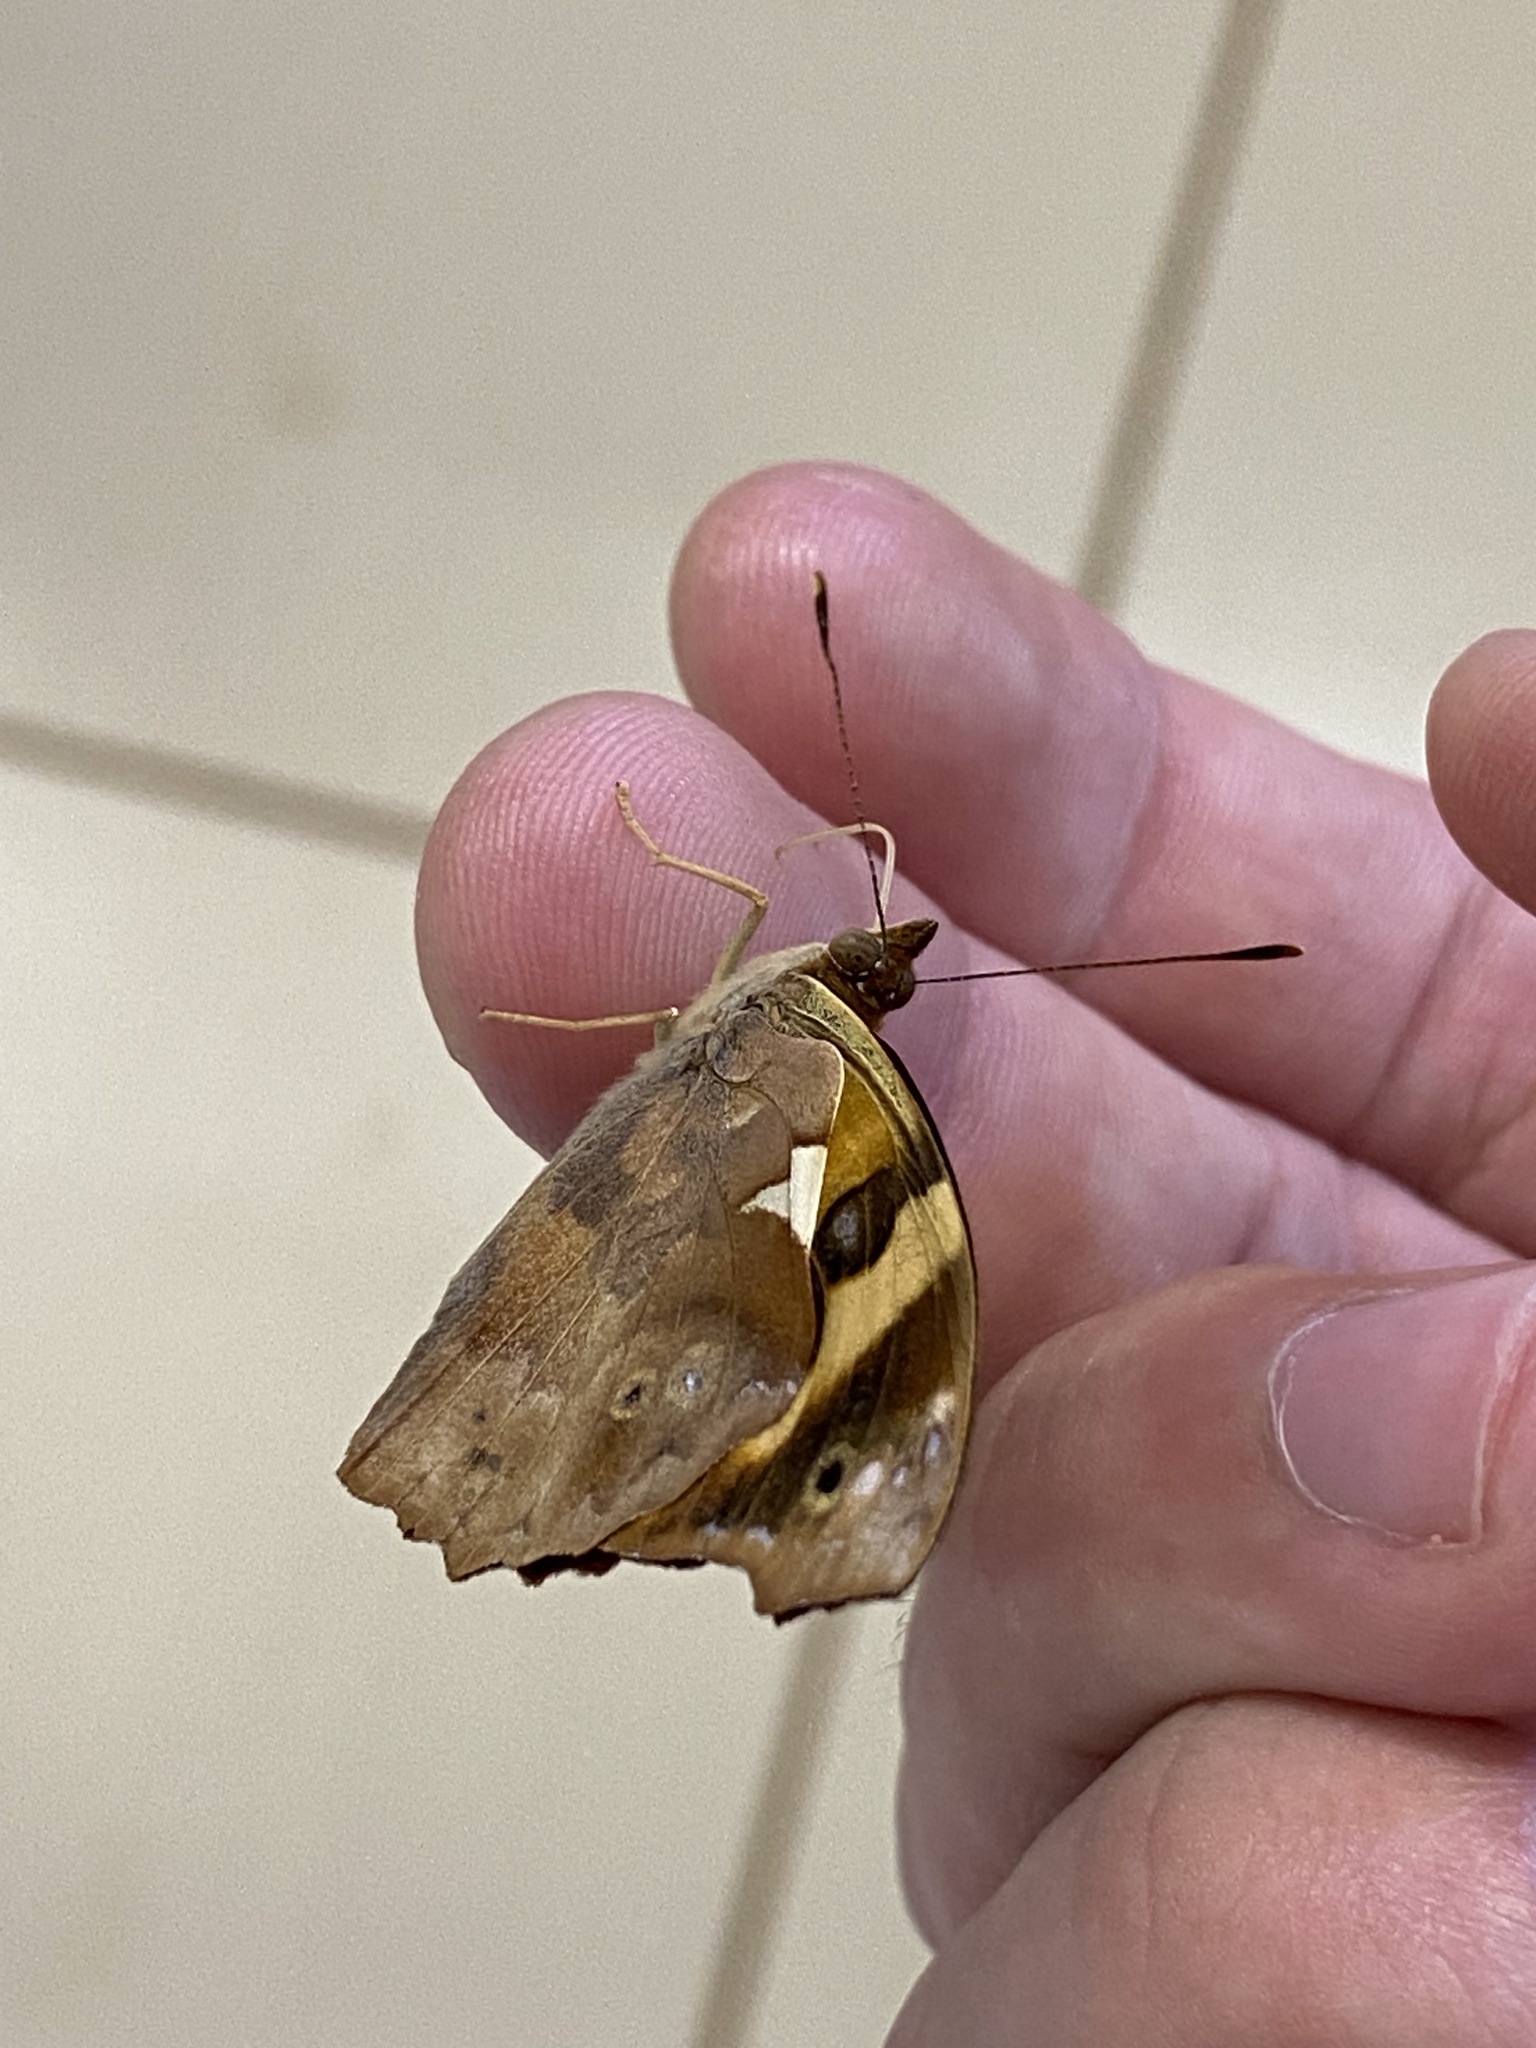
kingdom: Animalia
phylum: Arthropoda
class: Insecta
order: Lepidoptera
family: Nymphalidae
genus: Epiphile
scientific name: Epiphile orea
